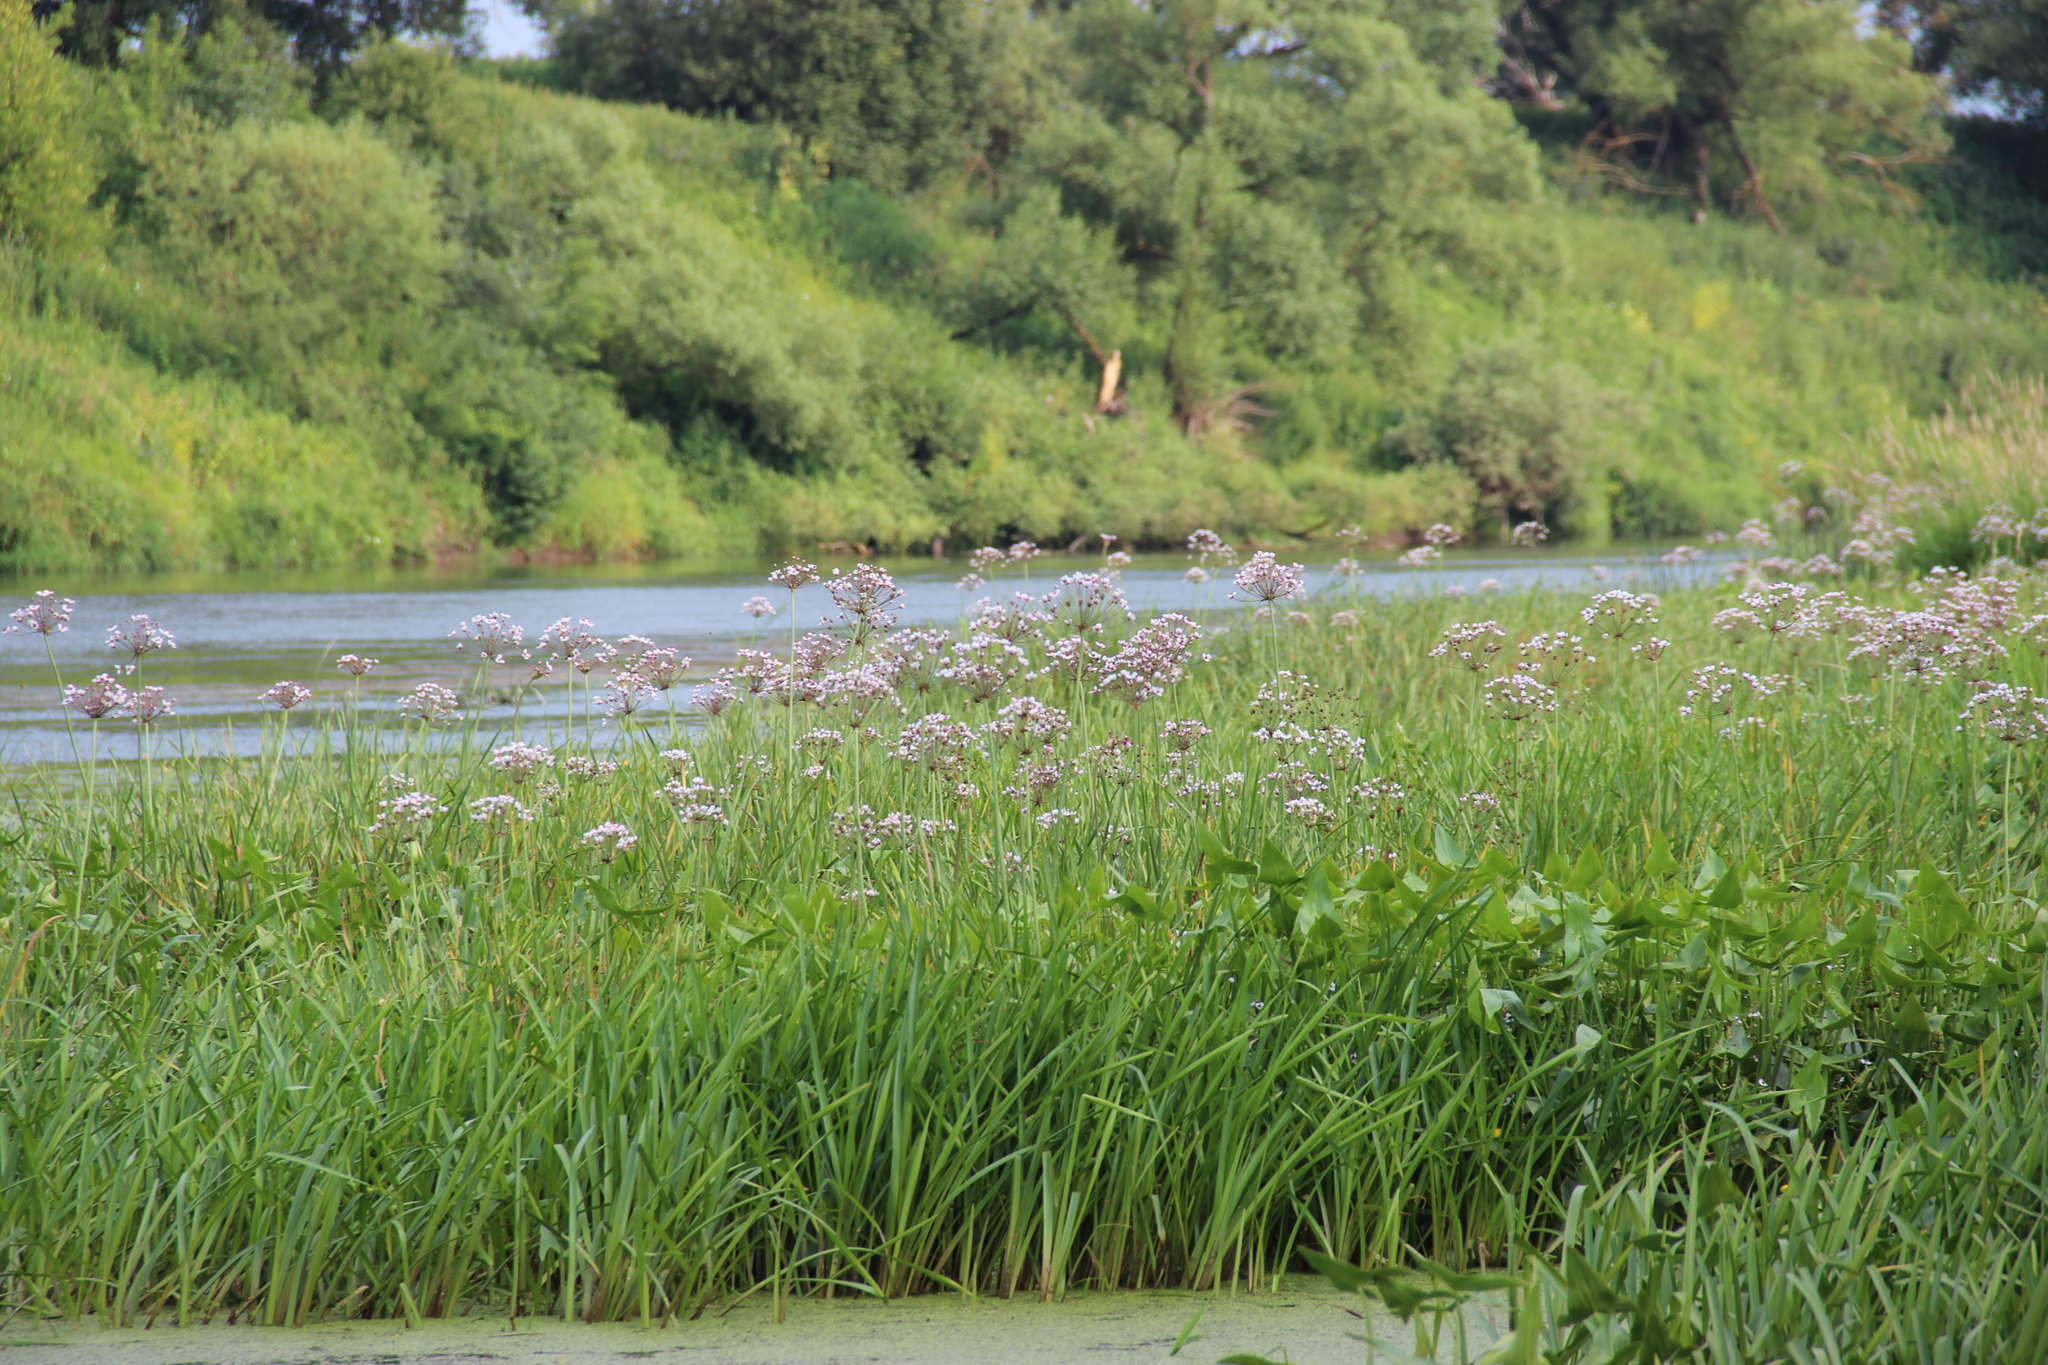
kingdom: Plantae
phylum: Tracheophyta
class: Liliopsida
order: Alismatales
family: Butomaceae
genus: Butomus
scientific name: Butomus umbellatus
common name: Flowering-rush
